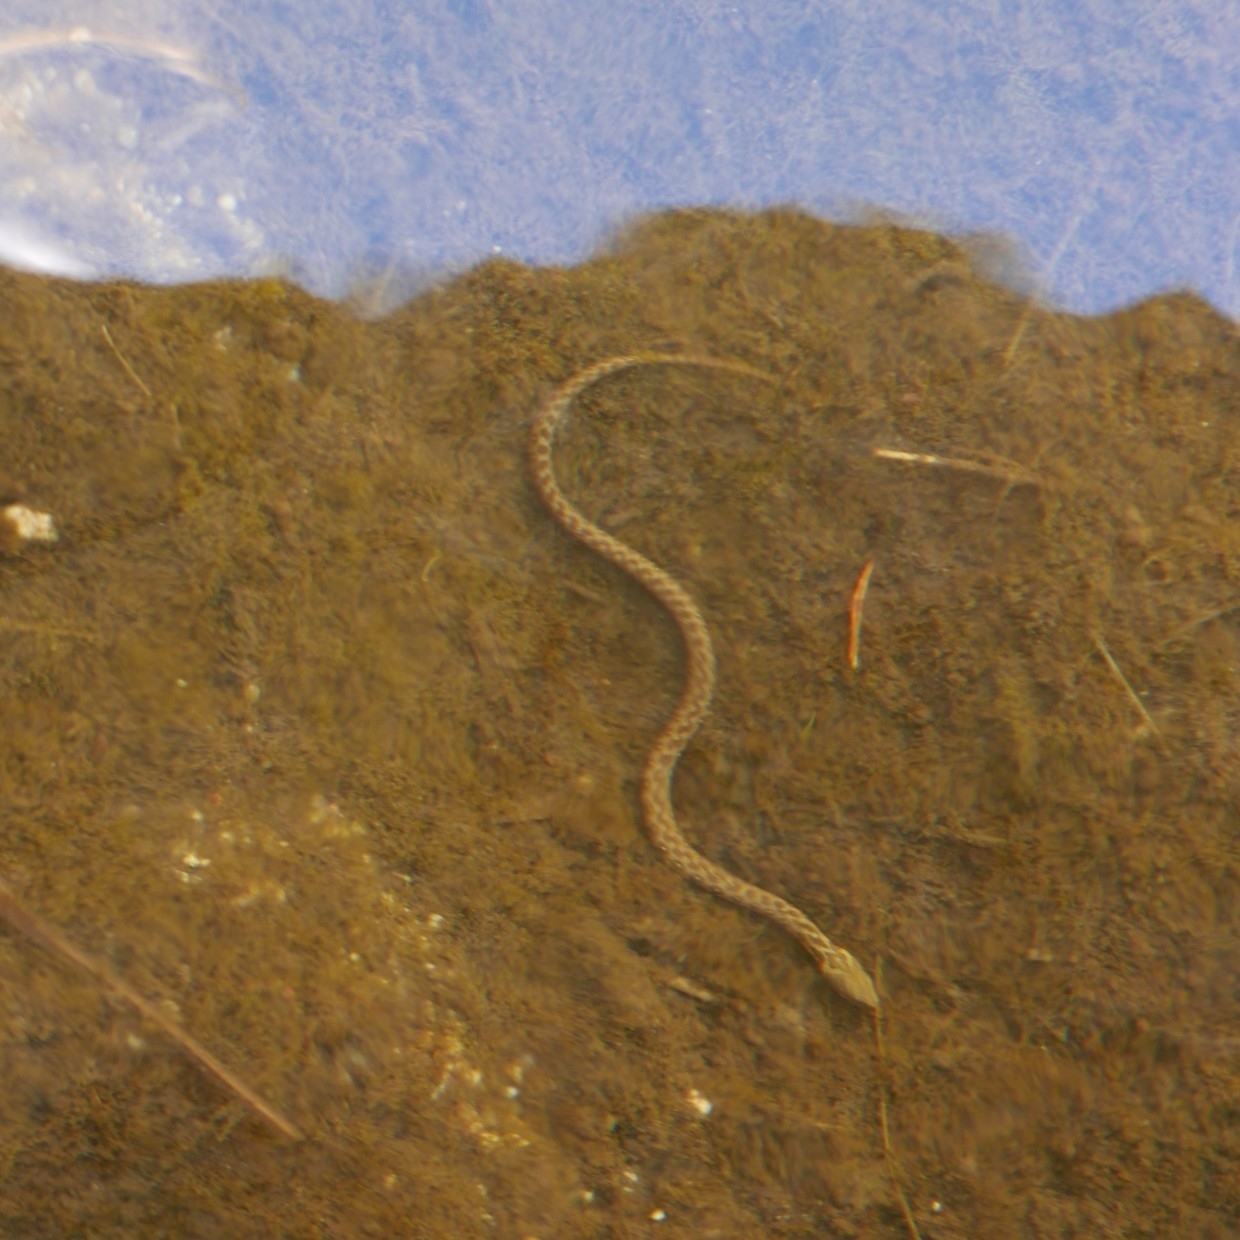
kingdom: Animalia
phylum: Chordata
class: Squamata
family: Colubridae
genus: Natrix
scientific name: Natrix maura
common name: Viperine water snake
